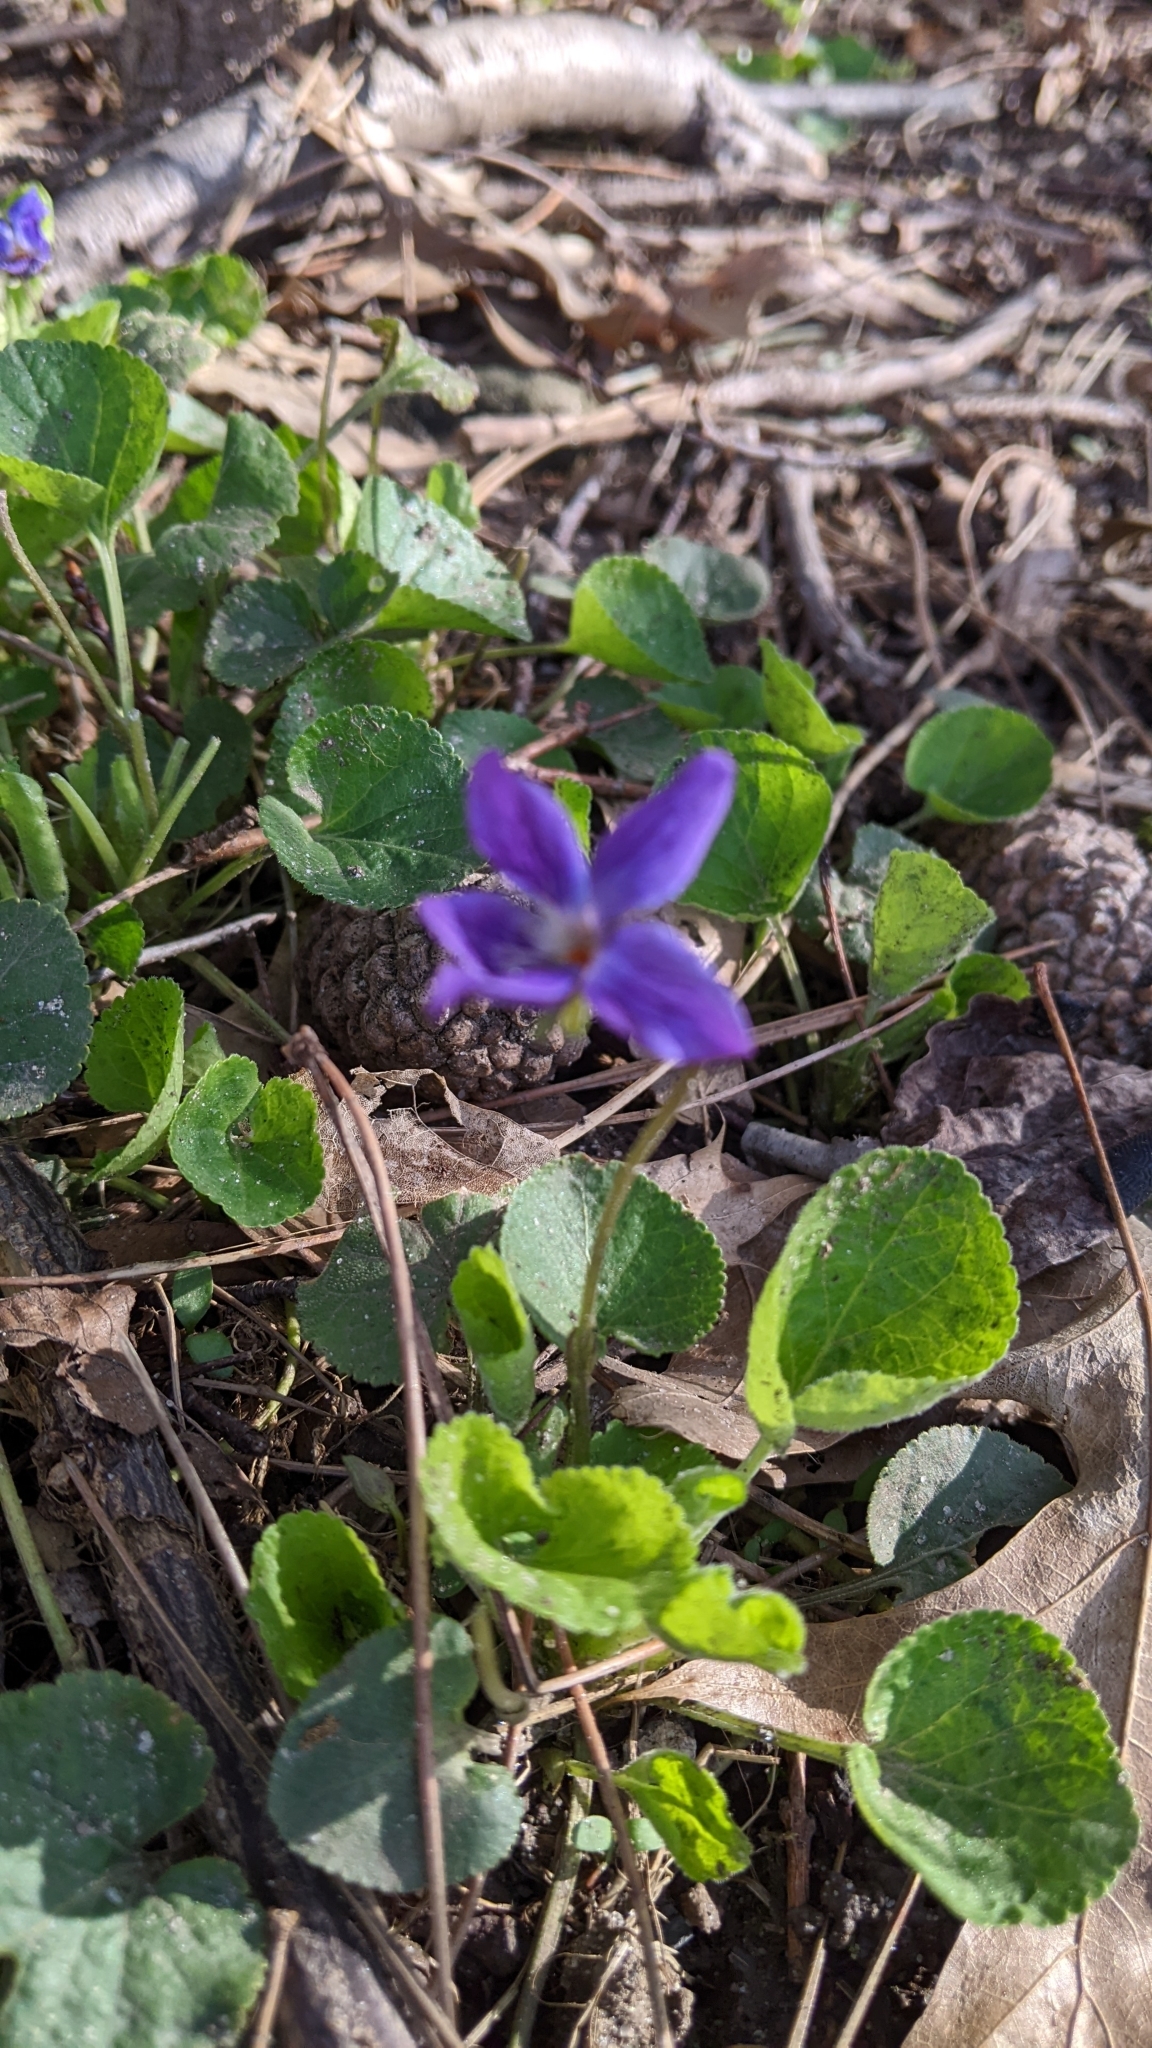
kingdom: Plantae
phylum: Tracheophyta
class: Magnoliopsida
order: Malpighiales
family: Violaceae
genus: Viola
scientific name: Viola odorata
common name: Sweet violet
